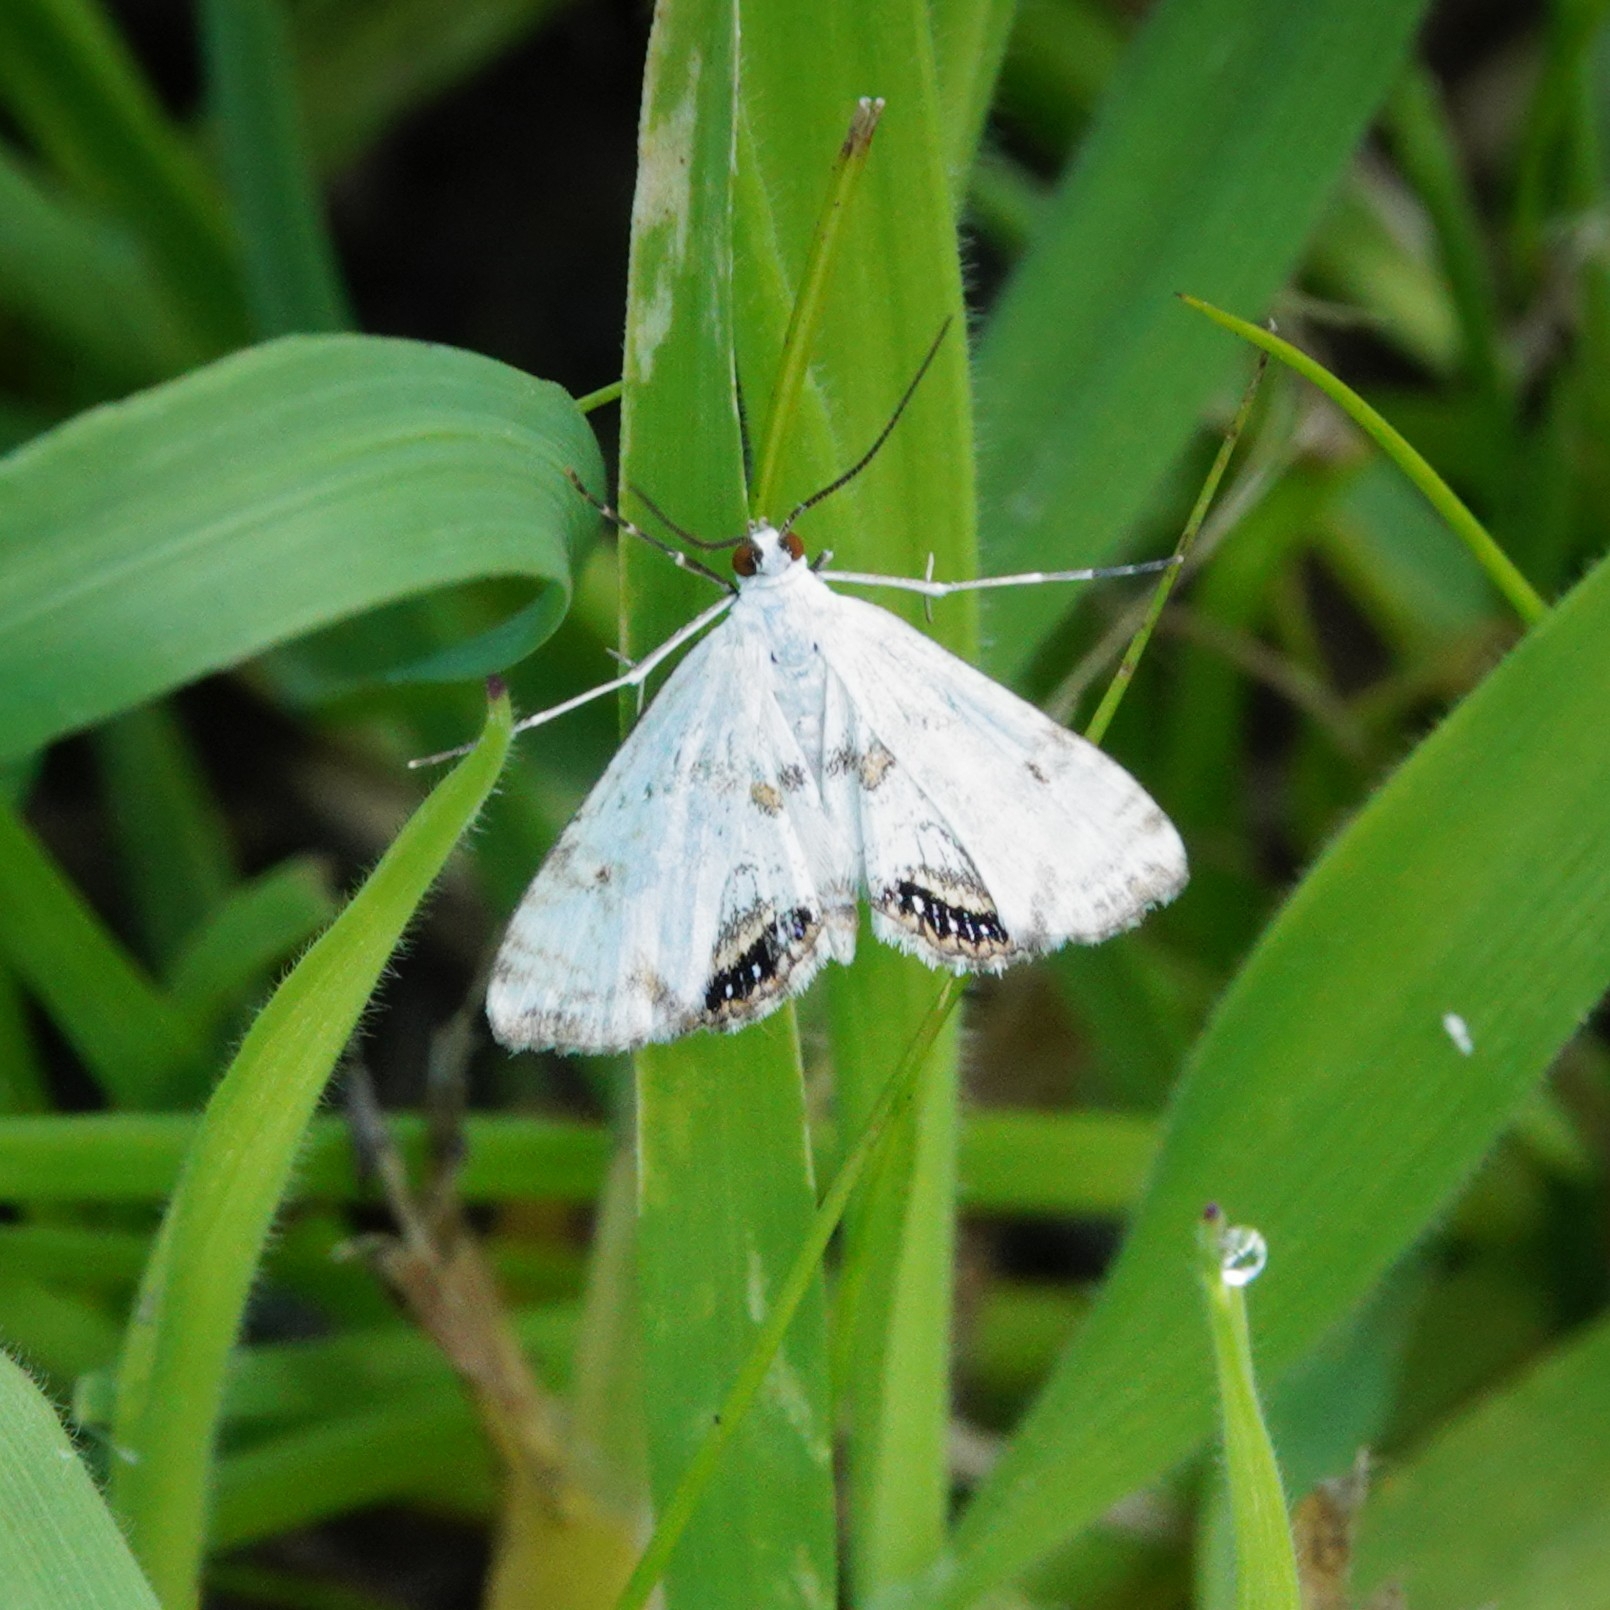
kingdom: Animalia
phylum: Arthropoda
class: Insecta
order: Lepidoptera
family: Crambidae
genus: Cataclysta
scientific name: Cataclysta lemnata
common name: Small china-mark
